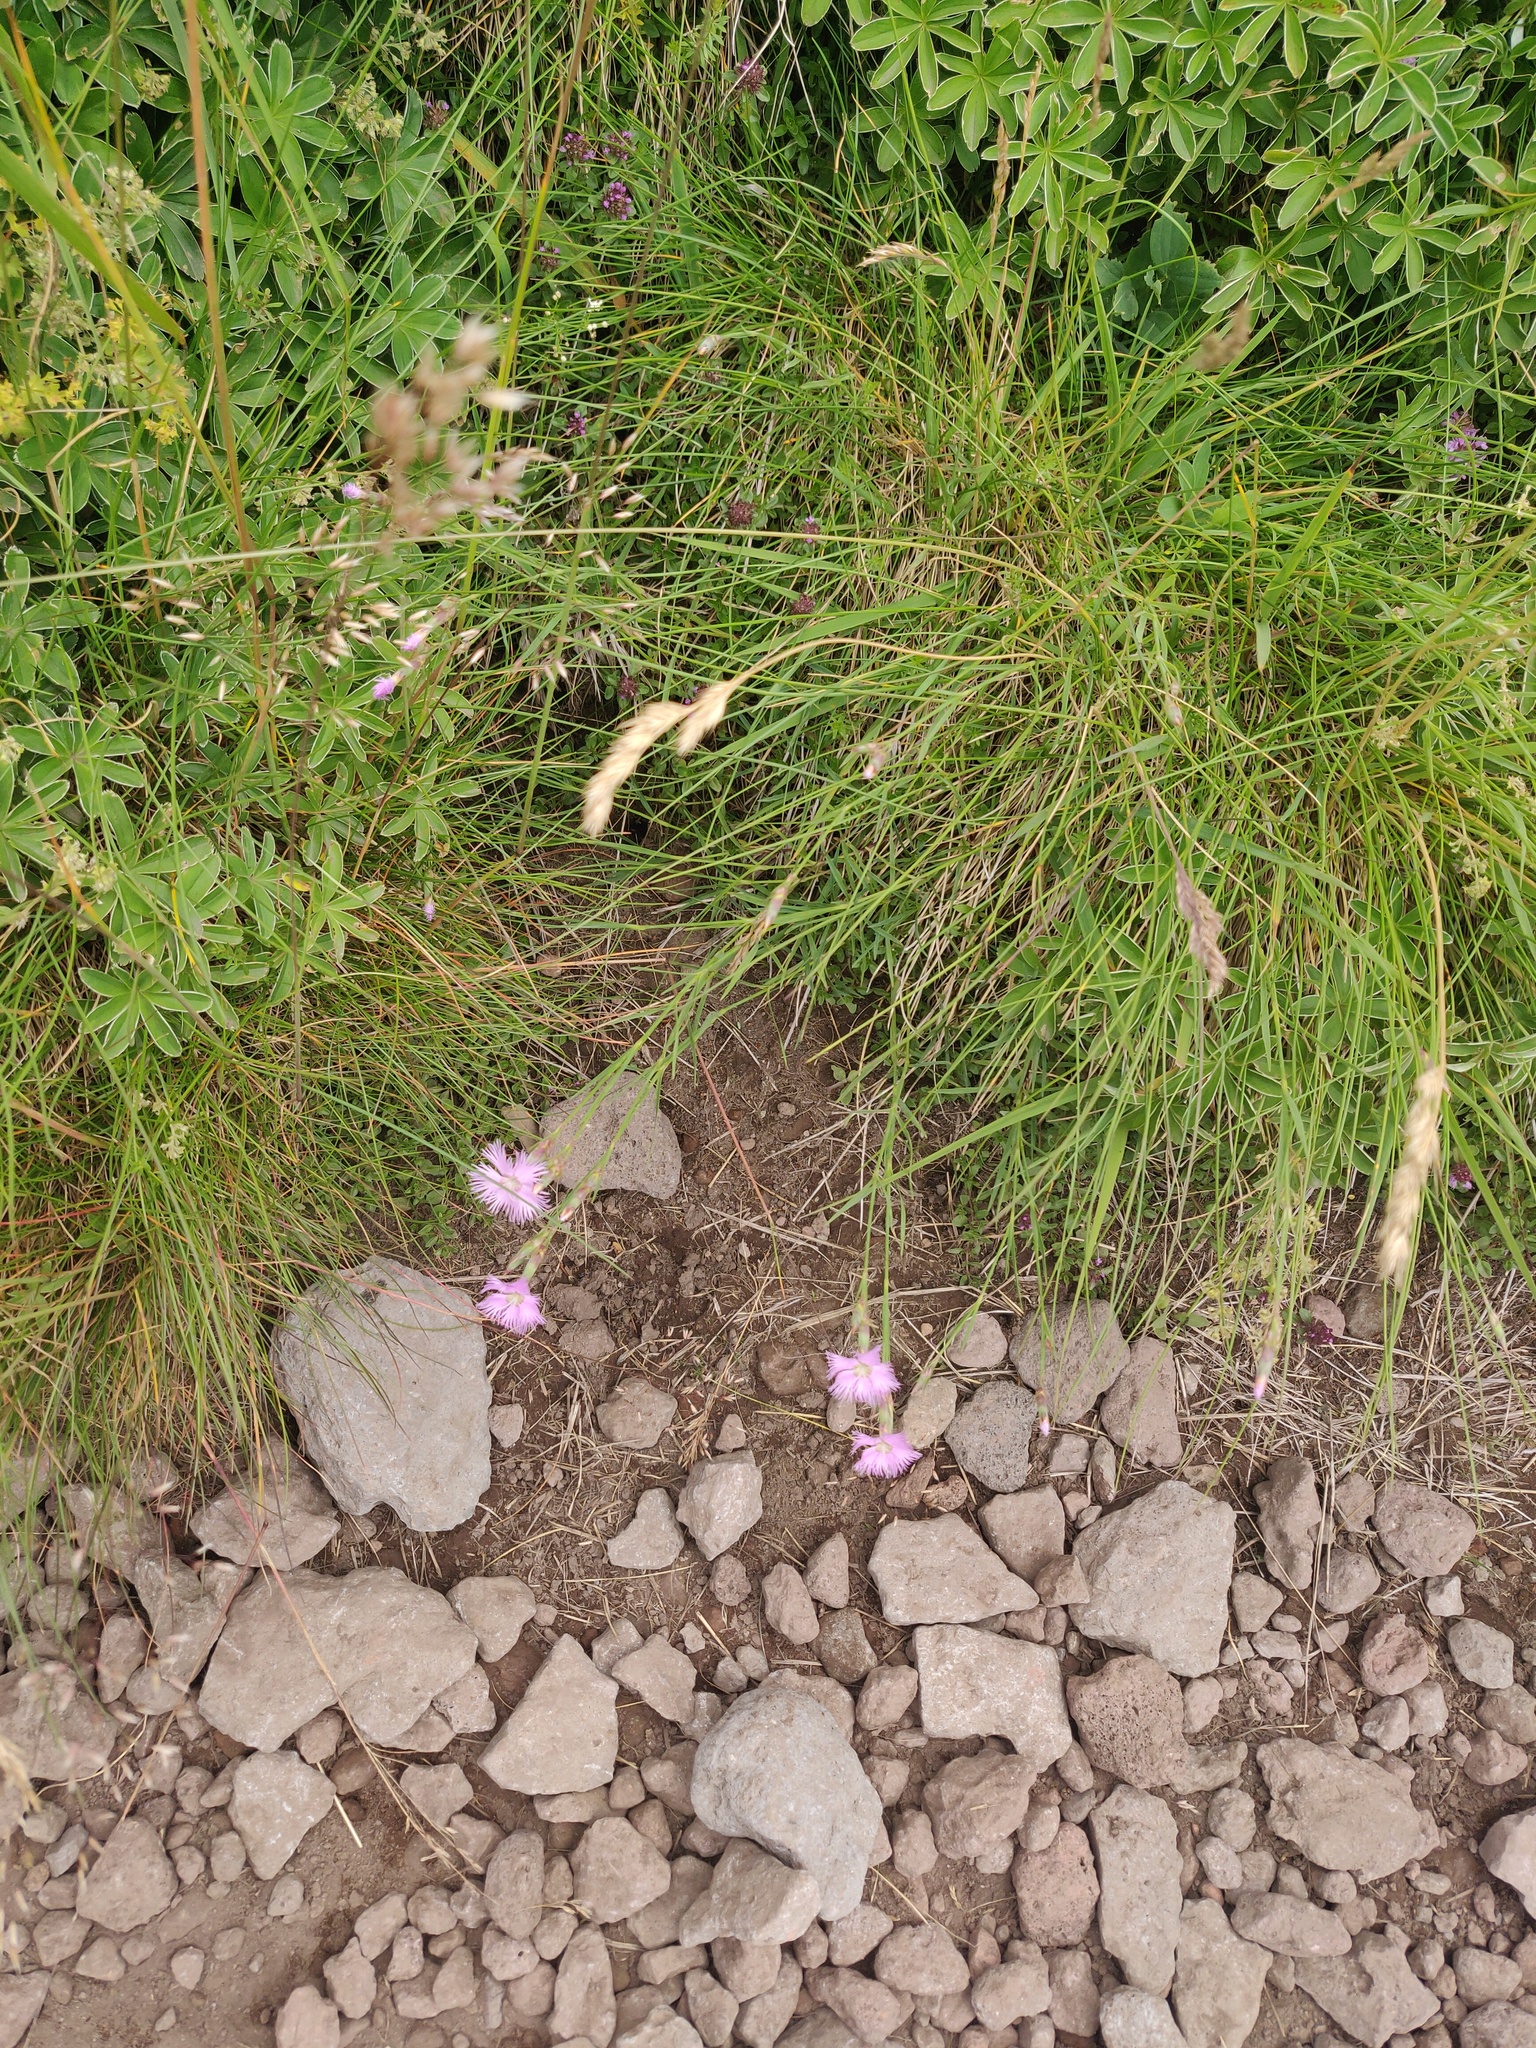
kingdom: Plantae
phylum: Tracheophyta
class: Magnoliopsida
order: Caryophyllales
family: Caryophyllaceae
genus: Dianthus
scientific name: Dianthus hyssopifolius
